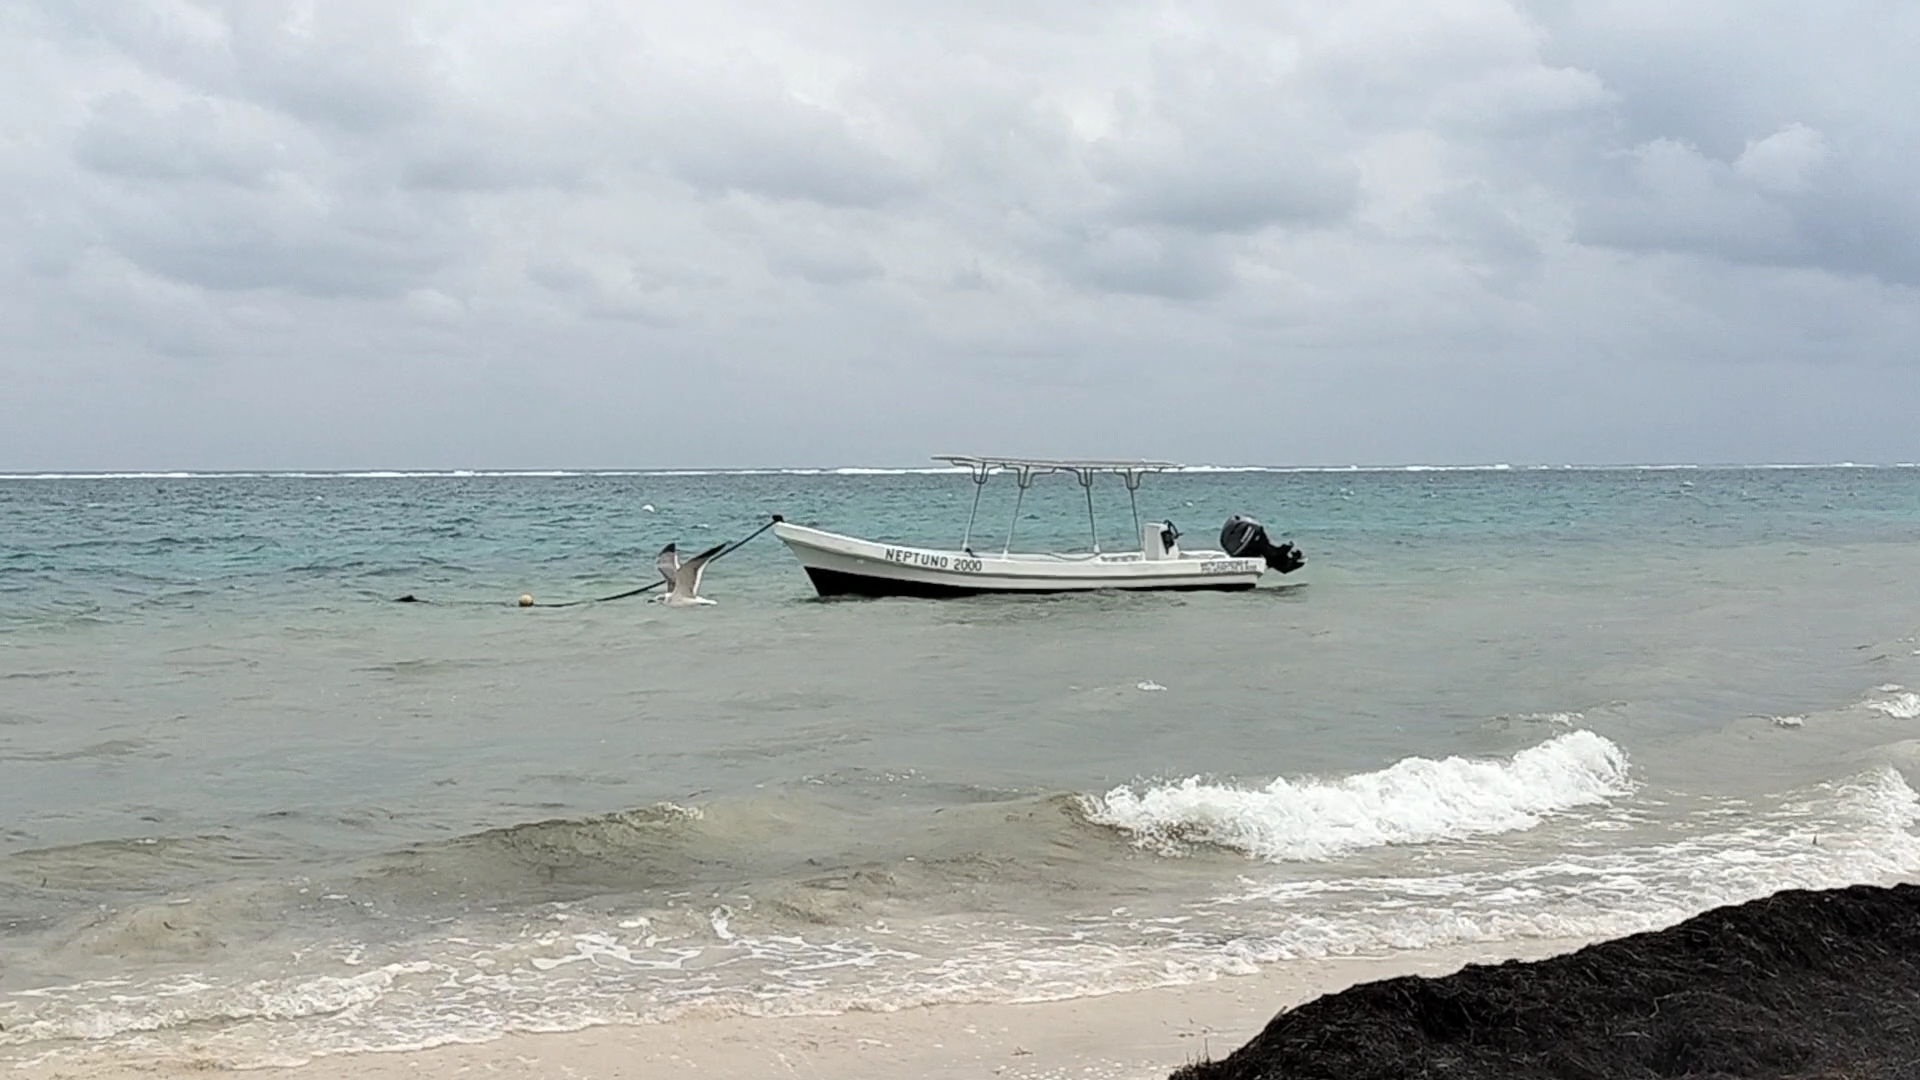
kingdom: Animalia
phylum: Chordata
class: Aves
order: Charadriiformes
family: Laridae
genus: Leucophaeus
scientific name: Leucophaeus atricilla
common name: Laughing gull
